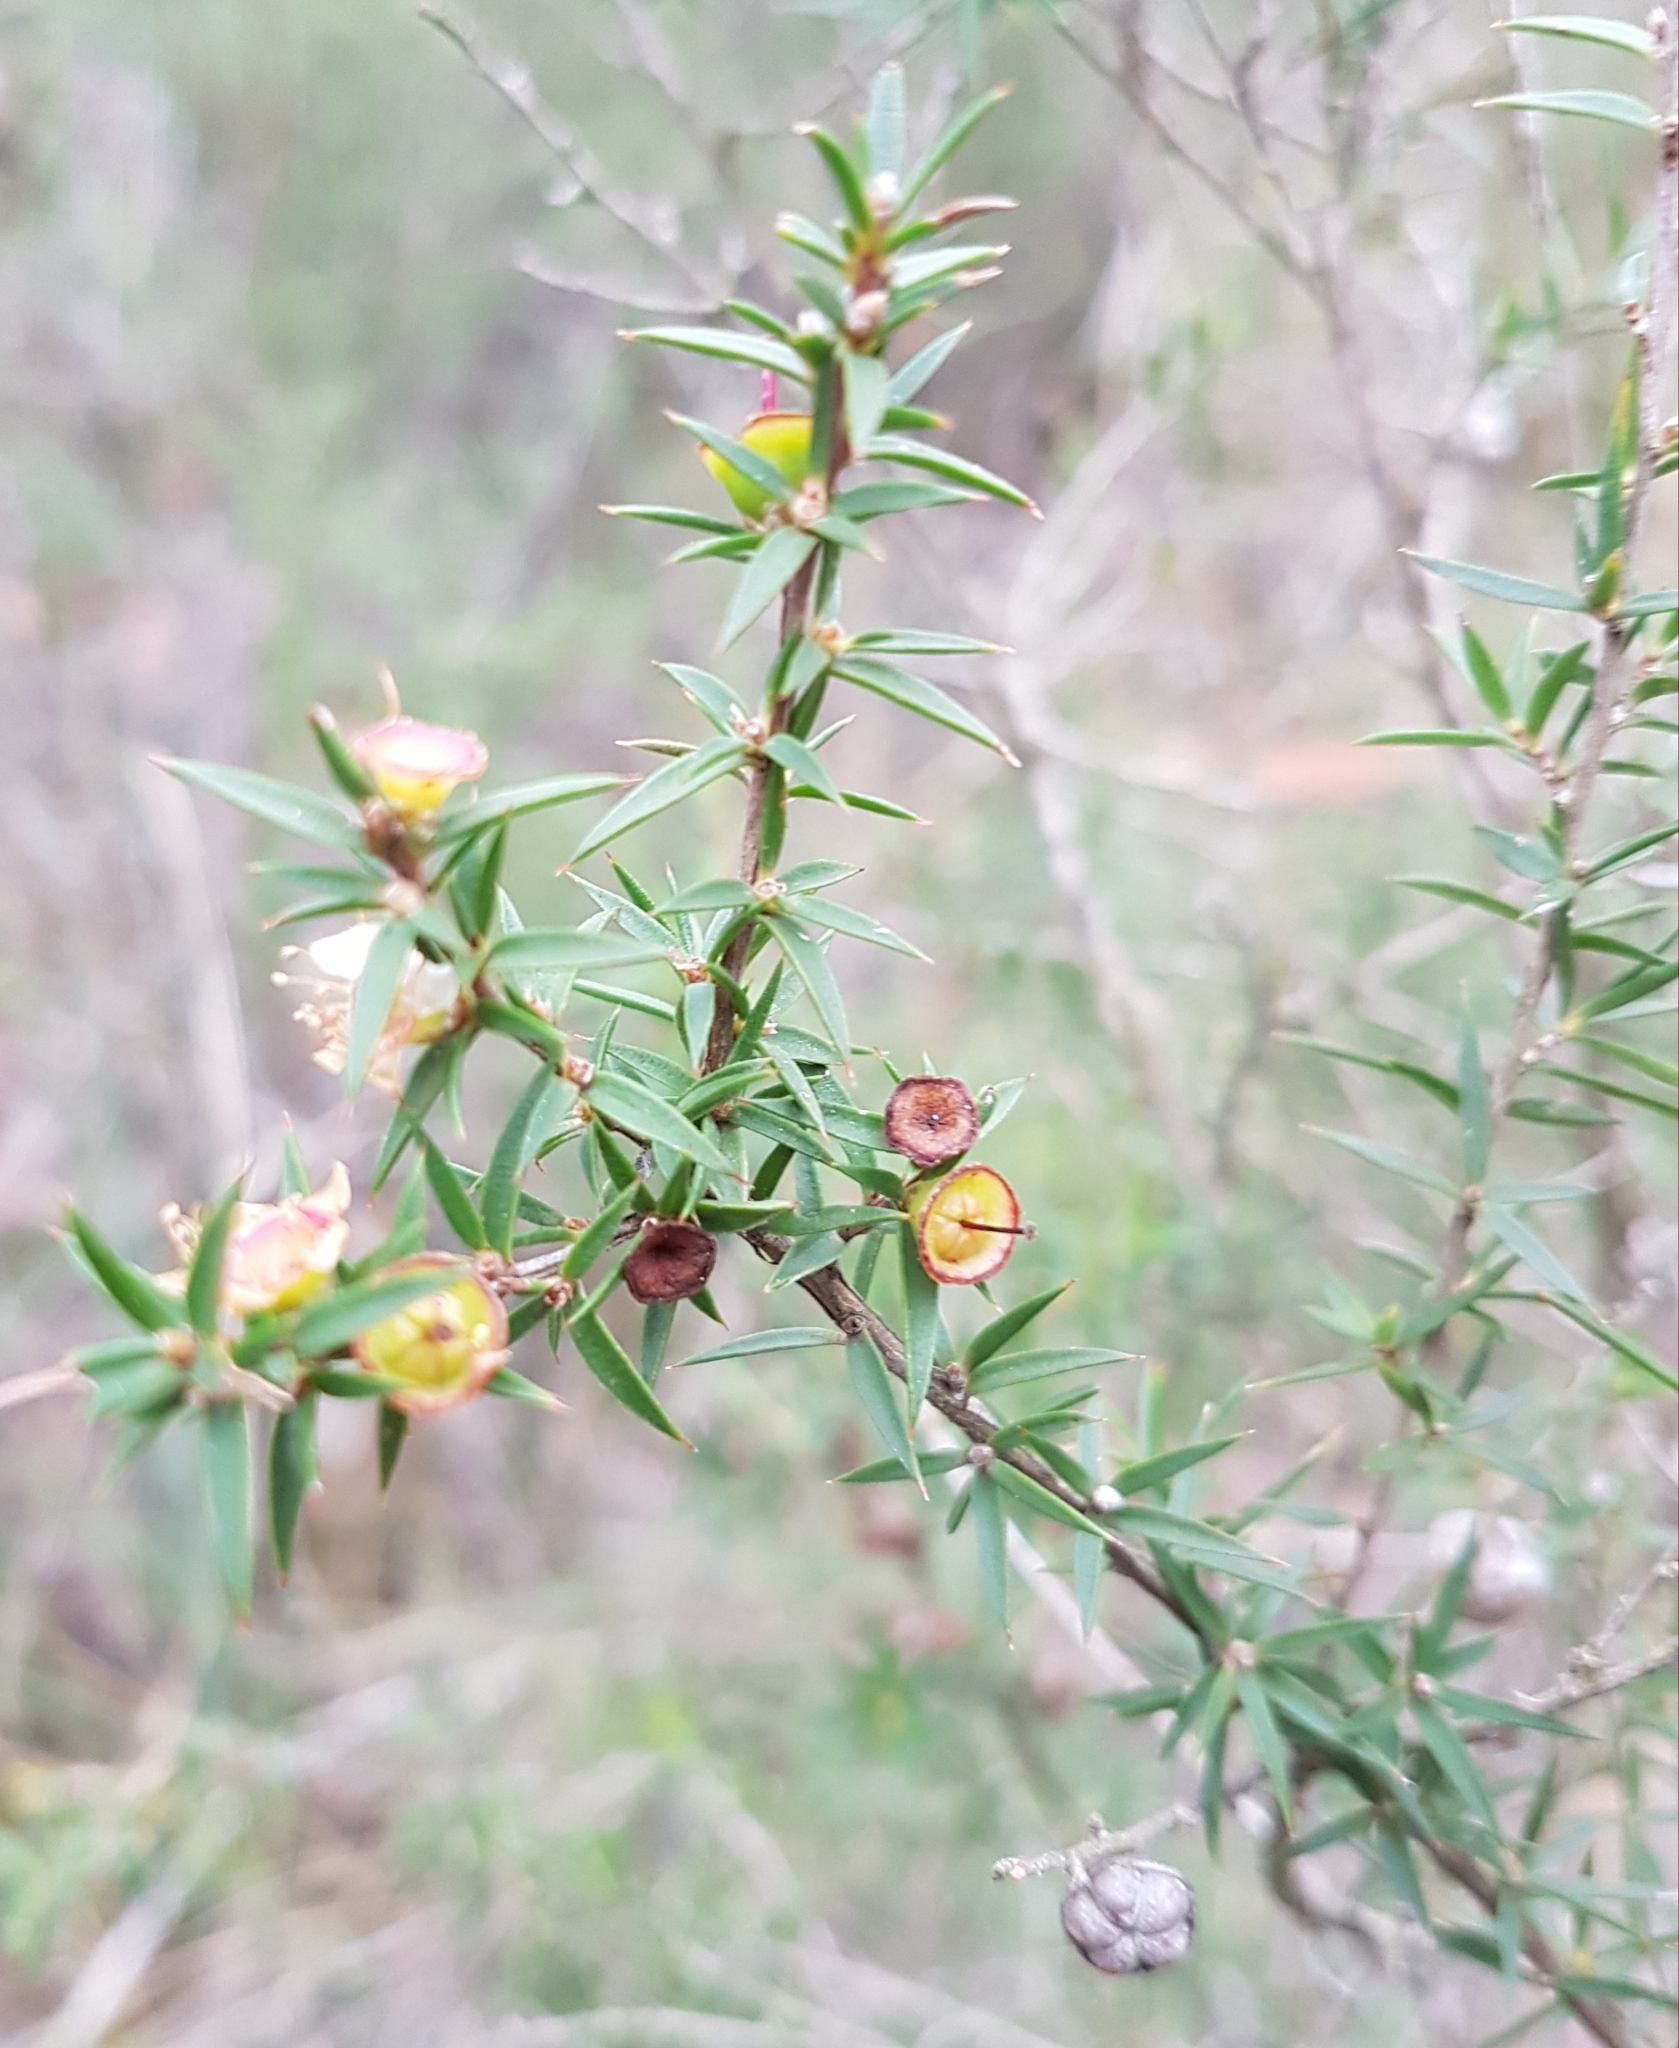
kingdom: Plantae
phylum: Tracheophyta
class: Magnoliopsida
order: Myrtales
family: Myrtaceae
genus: Leptospermum
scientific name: Leptospermum continentale
